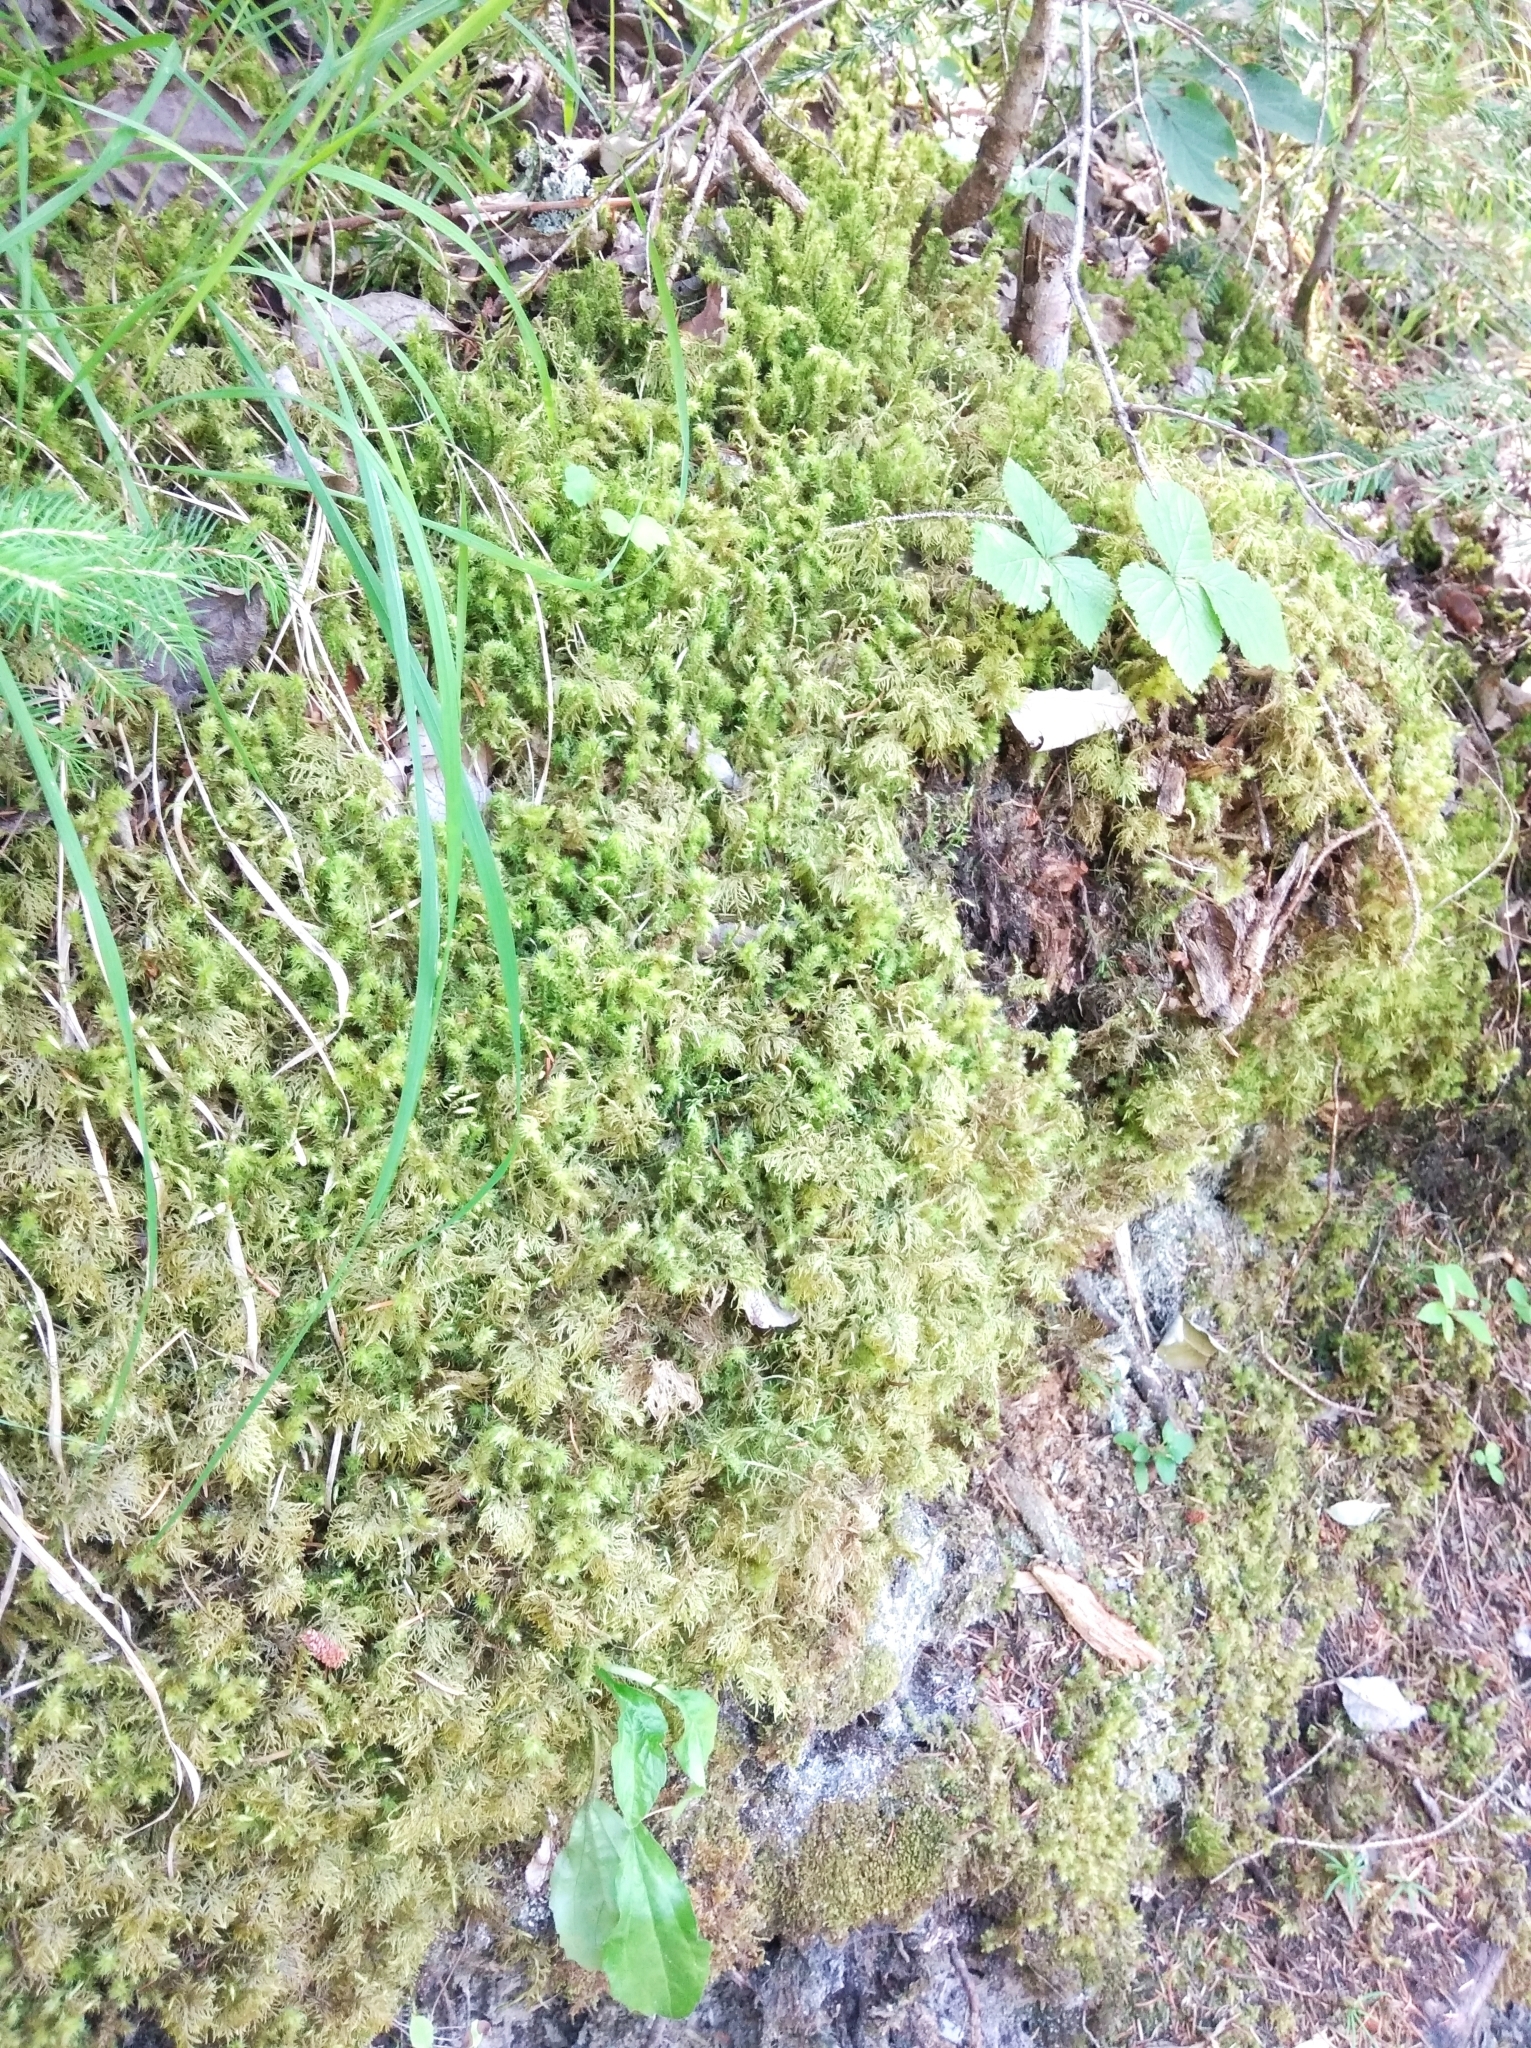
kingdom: Plantae
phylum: Bryophyta
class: Bryopsida
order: Hypnales
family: Hylocomiaceae
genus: Hylocomiadelphus
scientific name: Hylocomiadelphus triquetrus
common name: Rough goose neck moss
